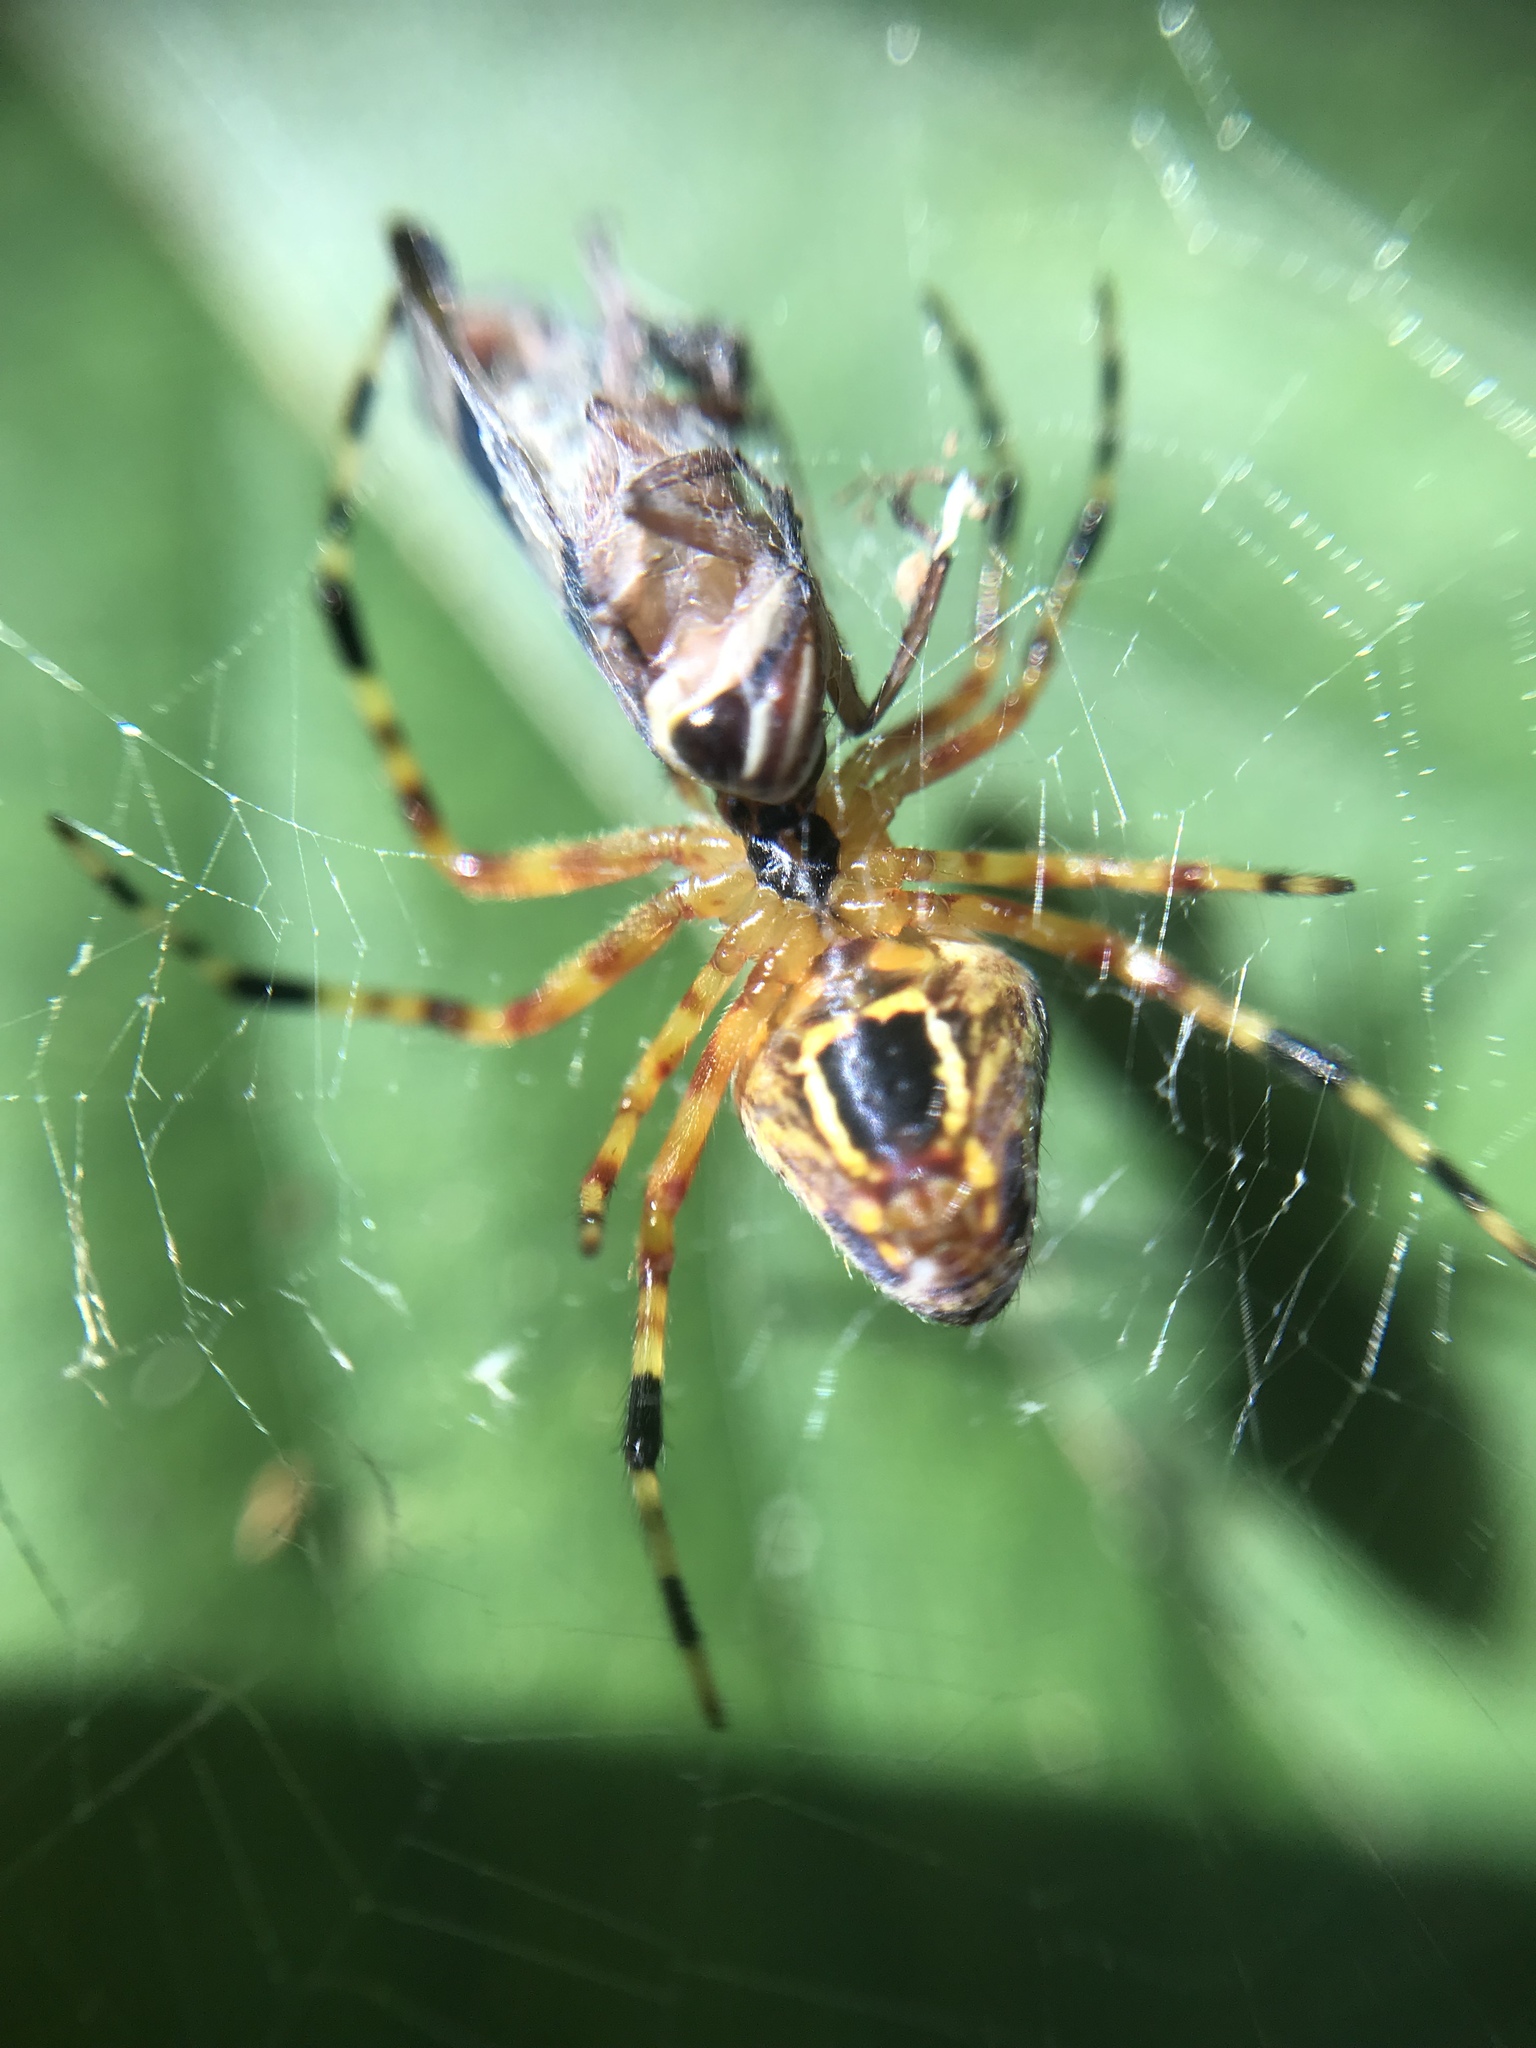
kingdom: Animalia
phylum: Arthropoda
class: Arachnida
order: Araneae
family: Araneidae
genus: Eriophora
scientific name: Eriophora nephiloides
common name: Orb weavers
